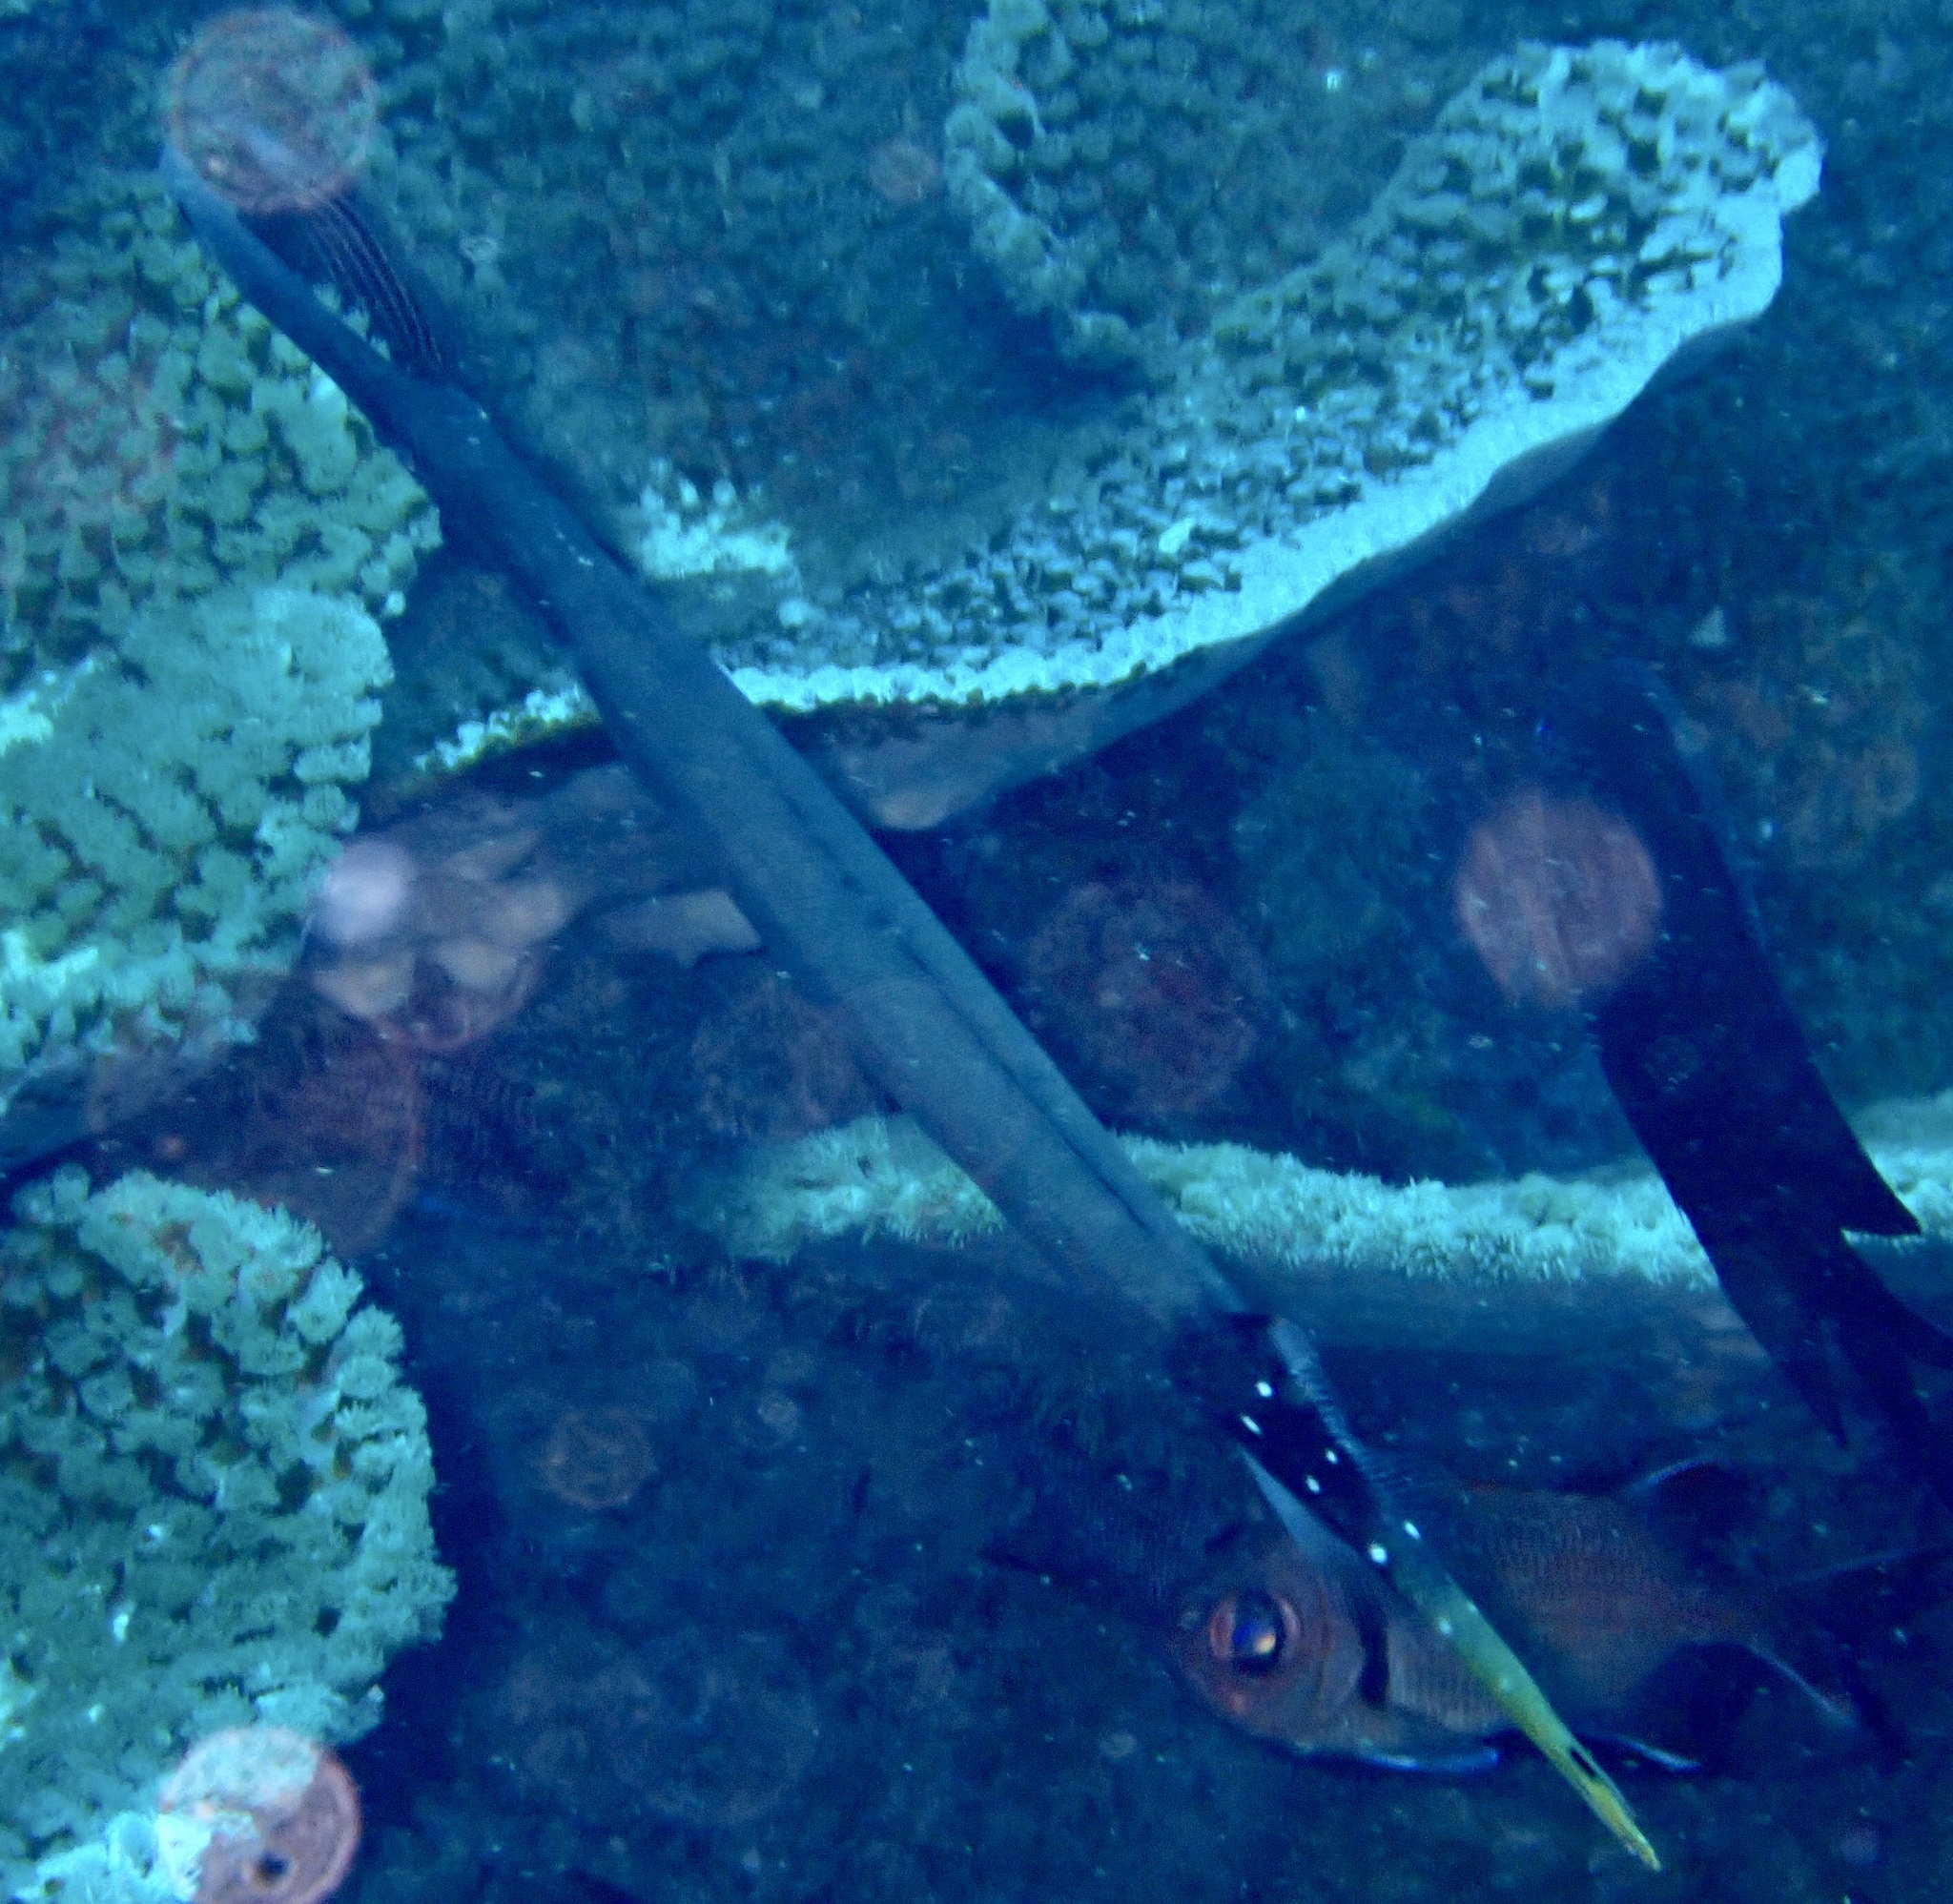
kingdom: Animalia
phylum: Chordata
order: Syngnathiformes
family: Aulostomidae
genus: Aulostomus
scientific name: Aulostomus chinensis
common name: Chinese trumpetfish
